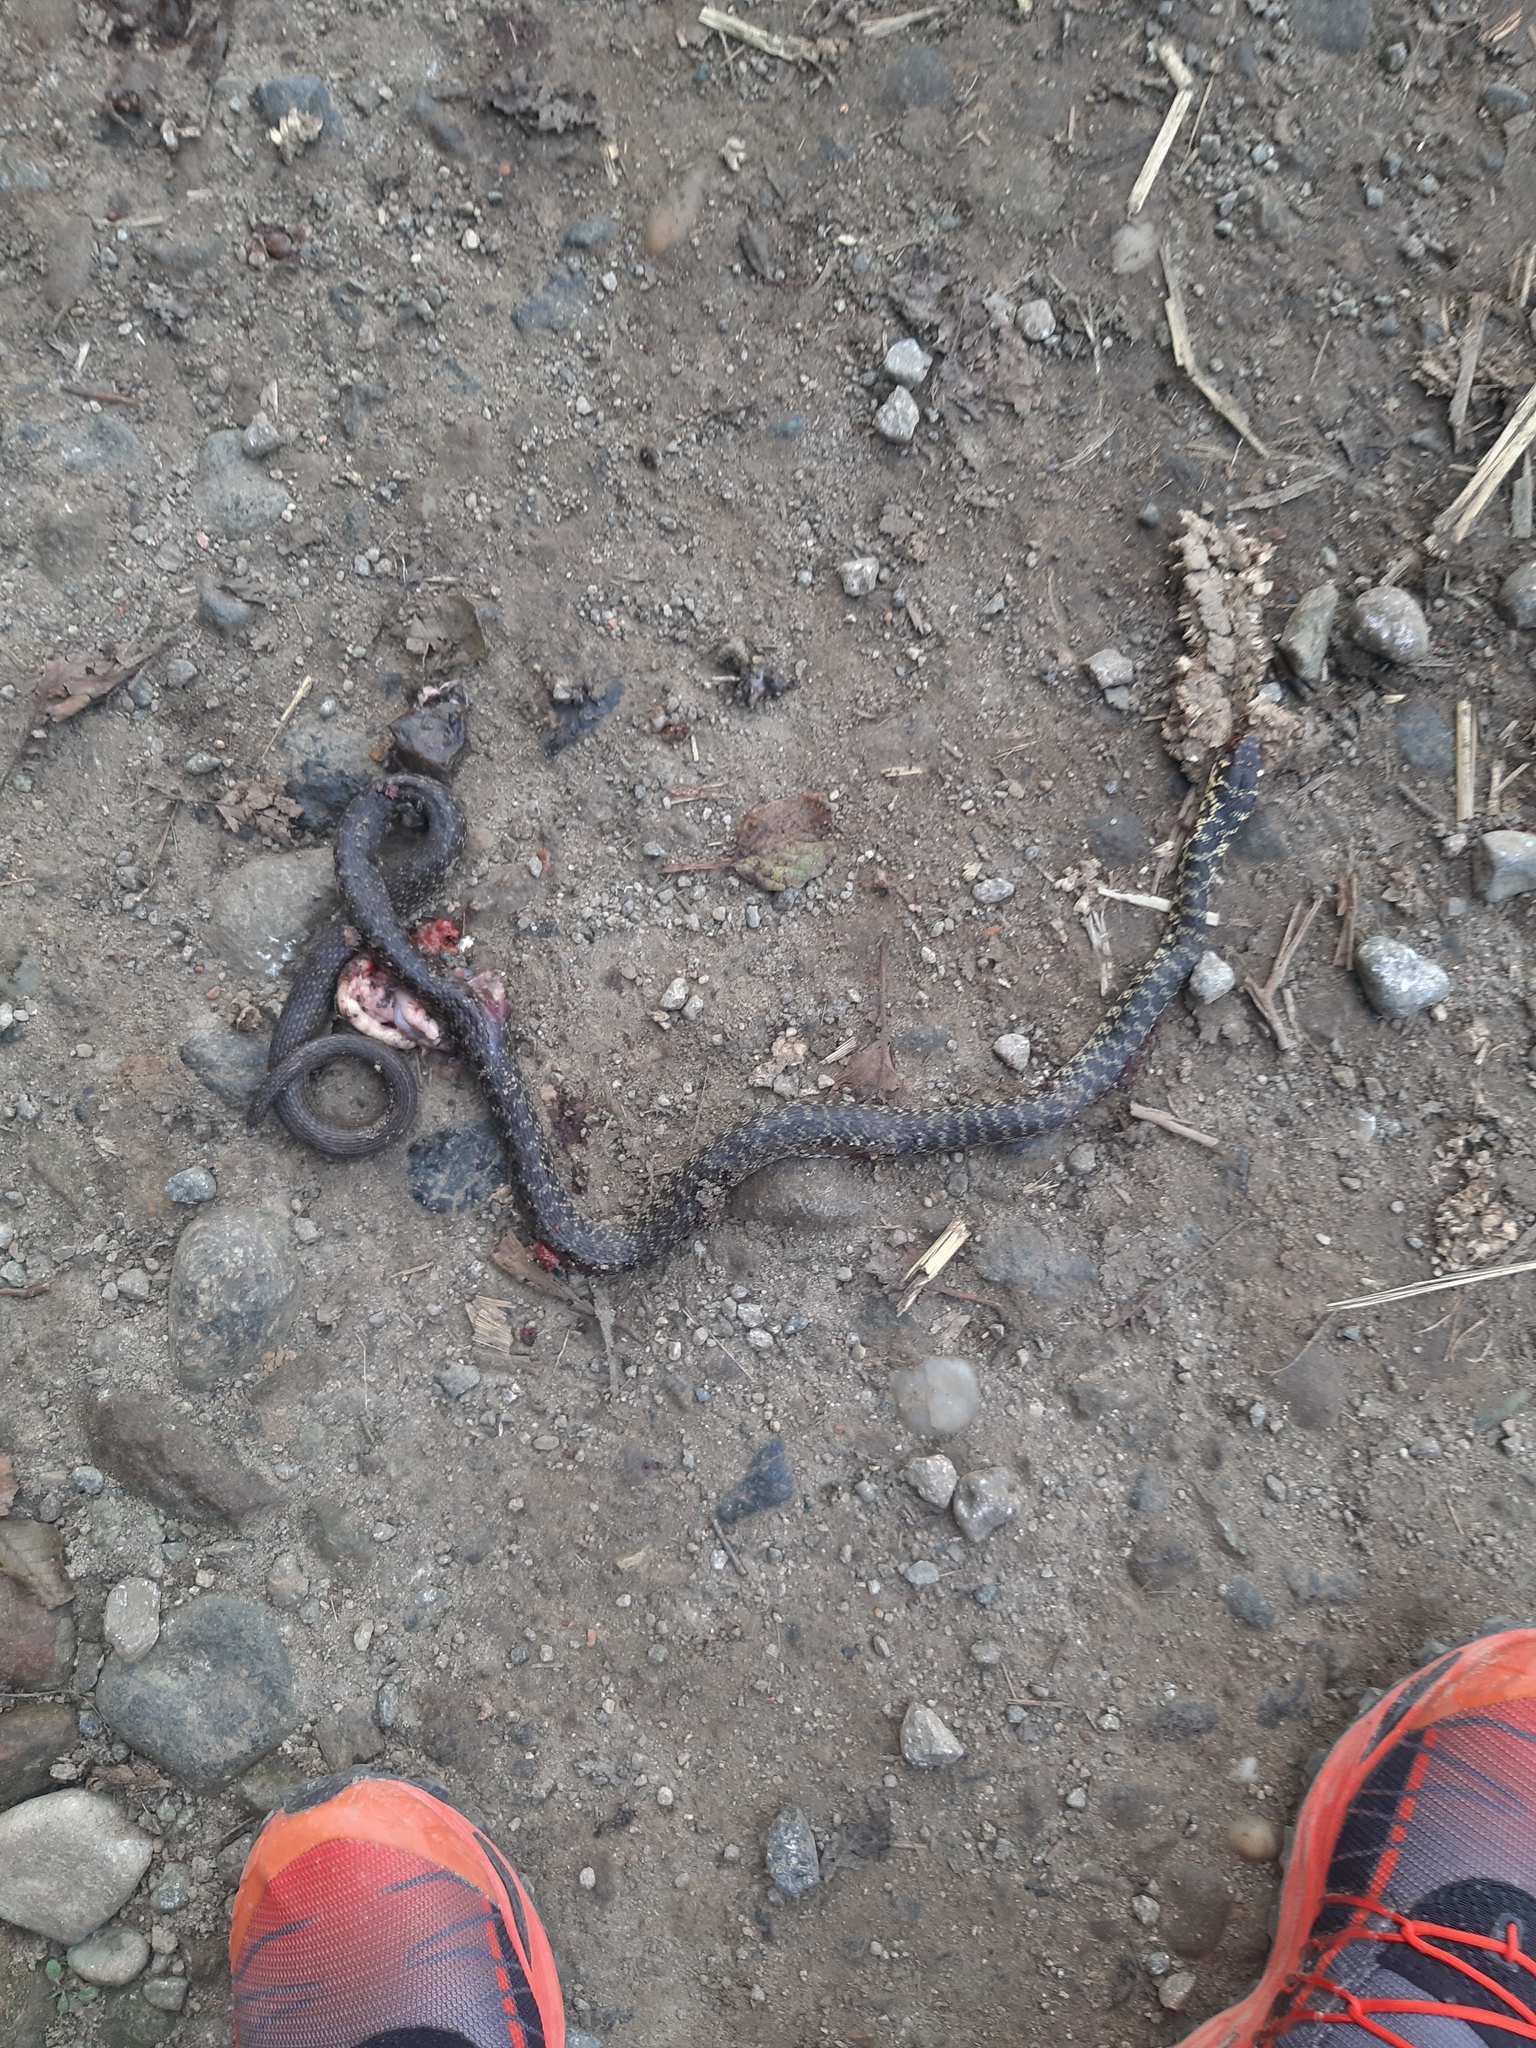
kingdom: Animalia
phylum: Chordata
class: Squamata
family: Colubridae
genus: Hierophis
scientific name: Hierophis viridiflavus
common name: Green whip snake
